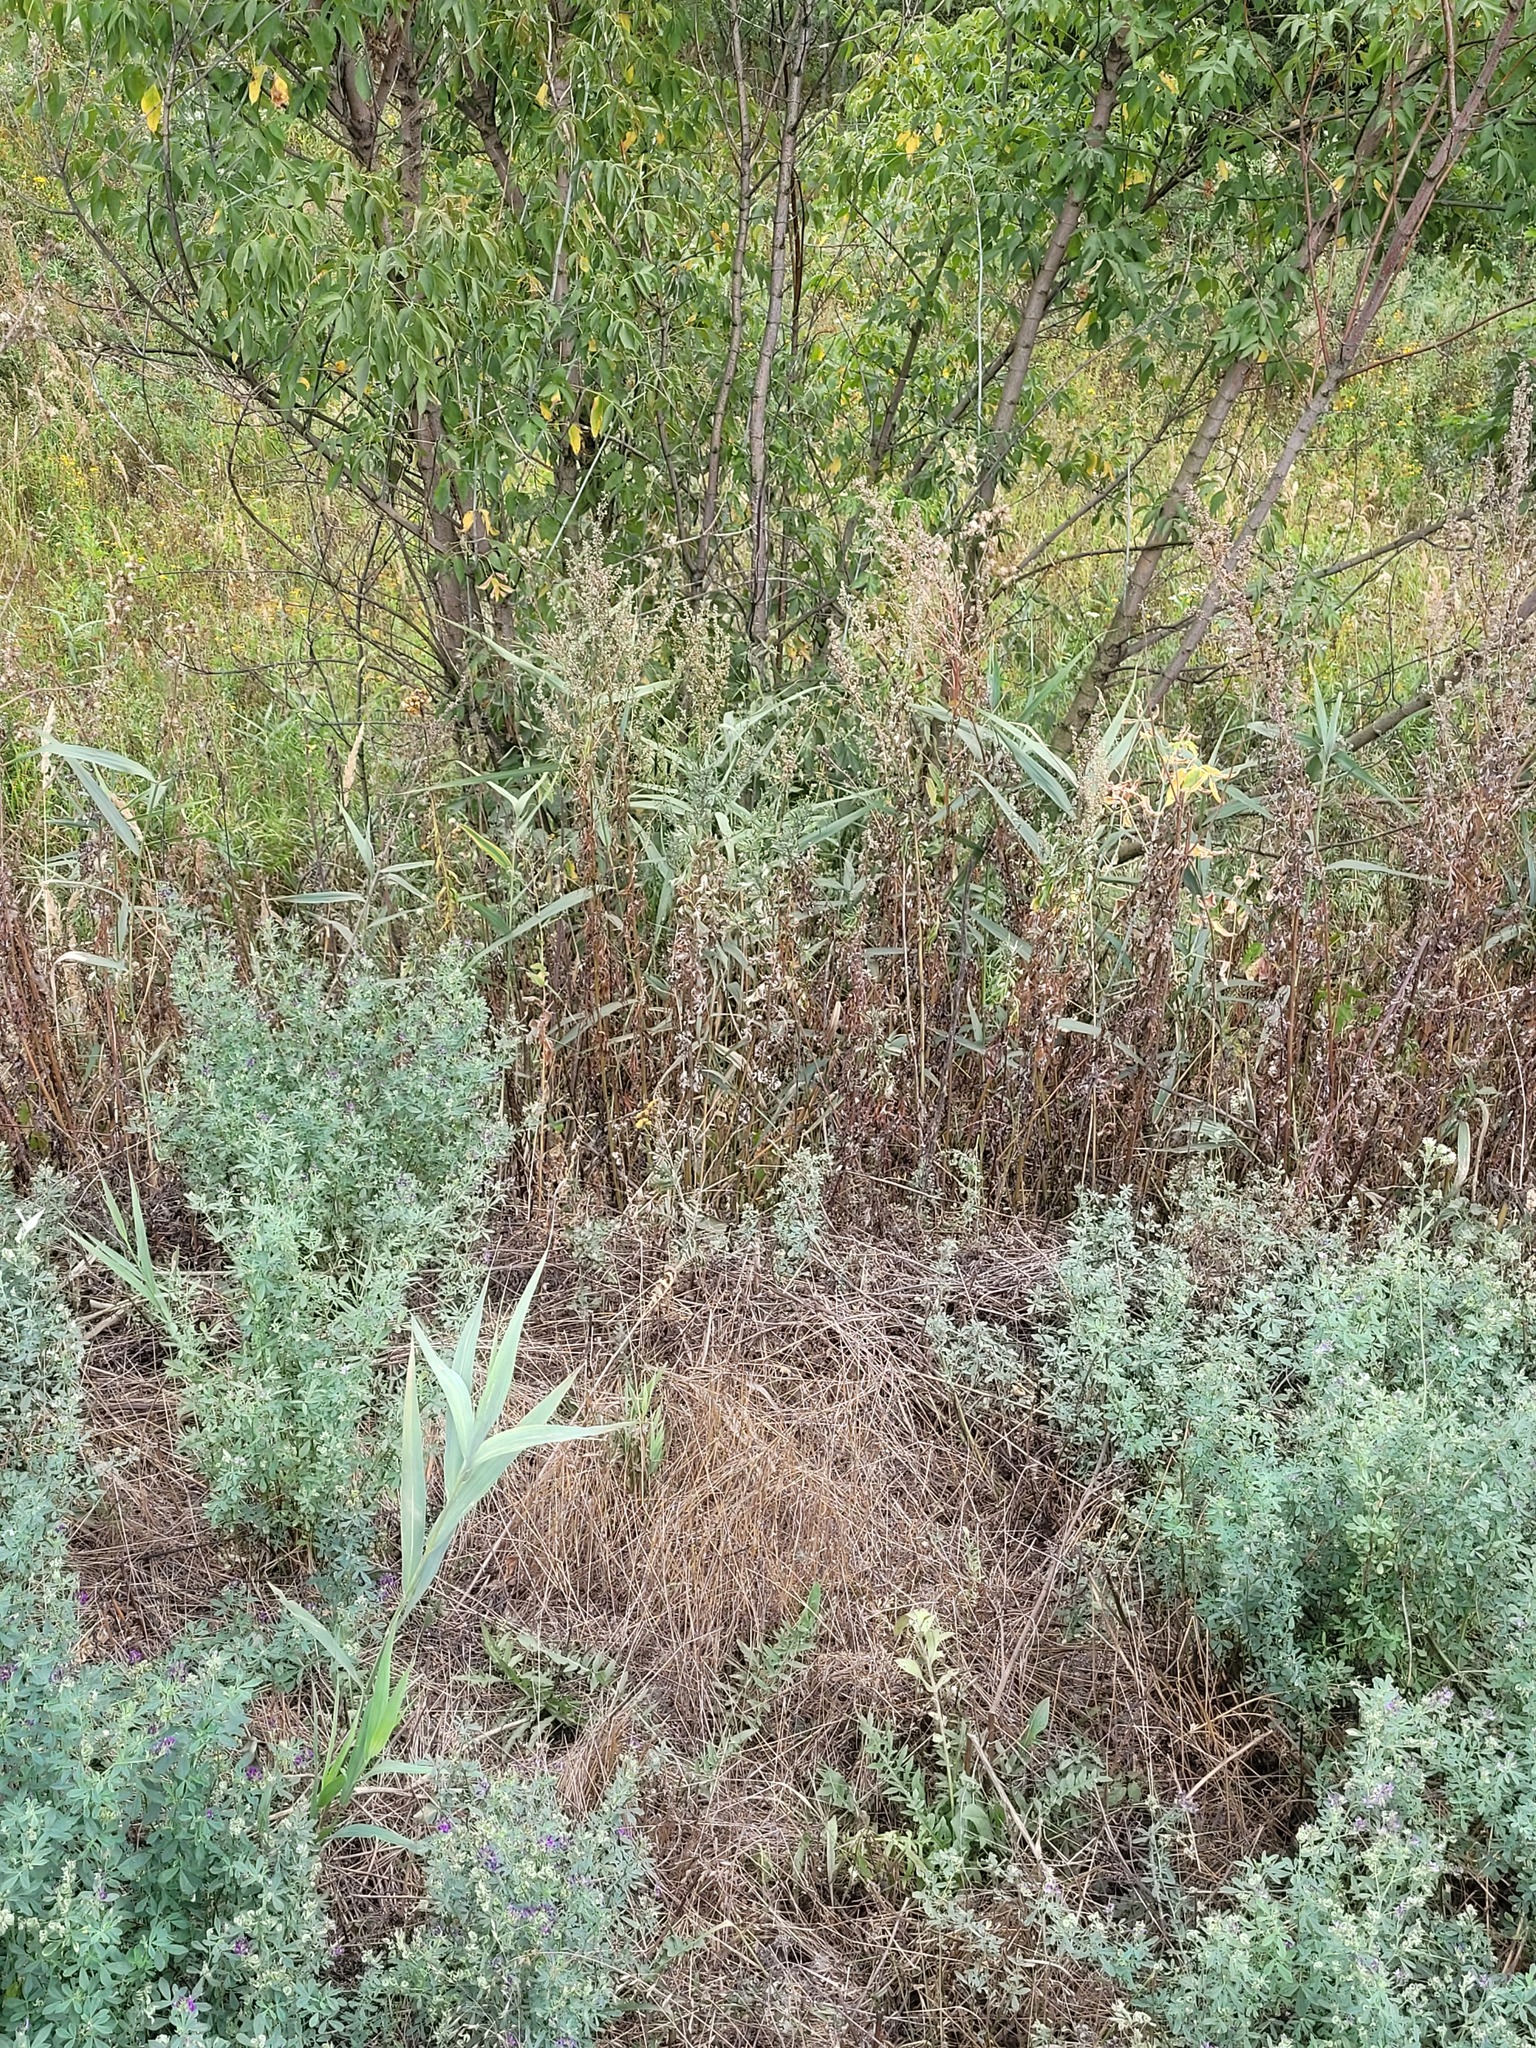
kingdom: Plantae
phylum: Tracheophyta
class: Liliopsida
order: Poales
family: Poaceae
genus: Phragmites
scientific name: Phragmites australis
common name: Common reed
